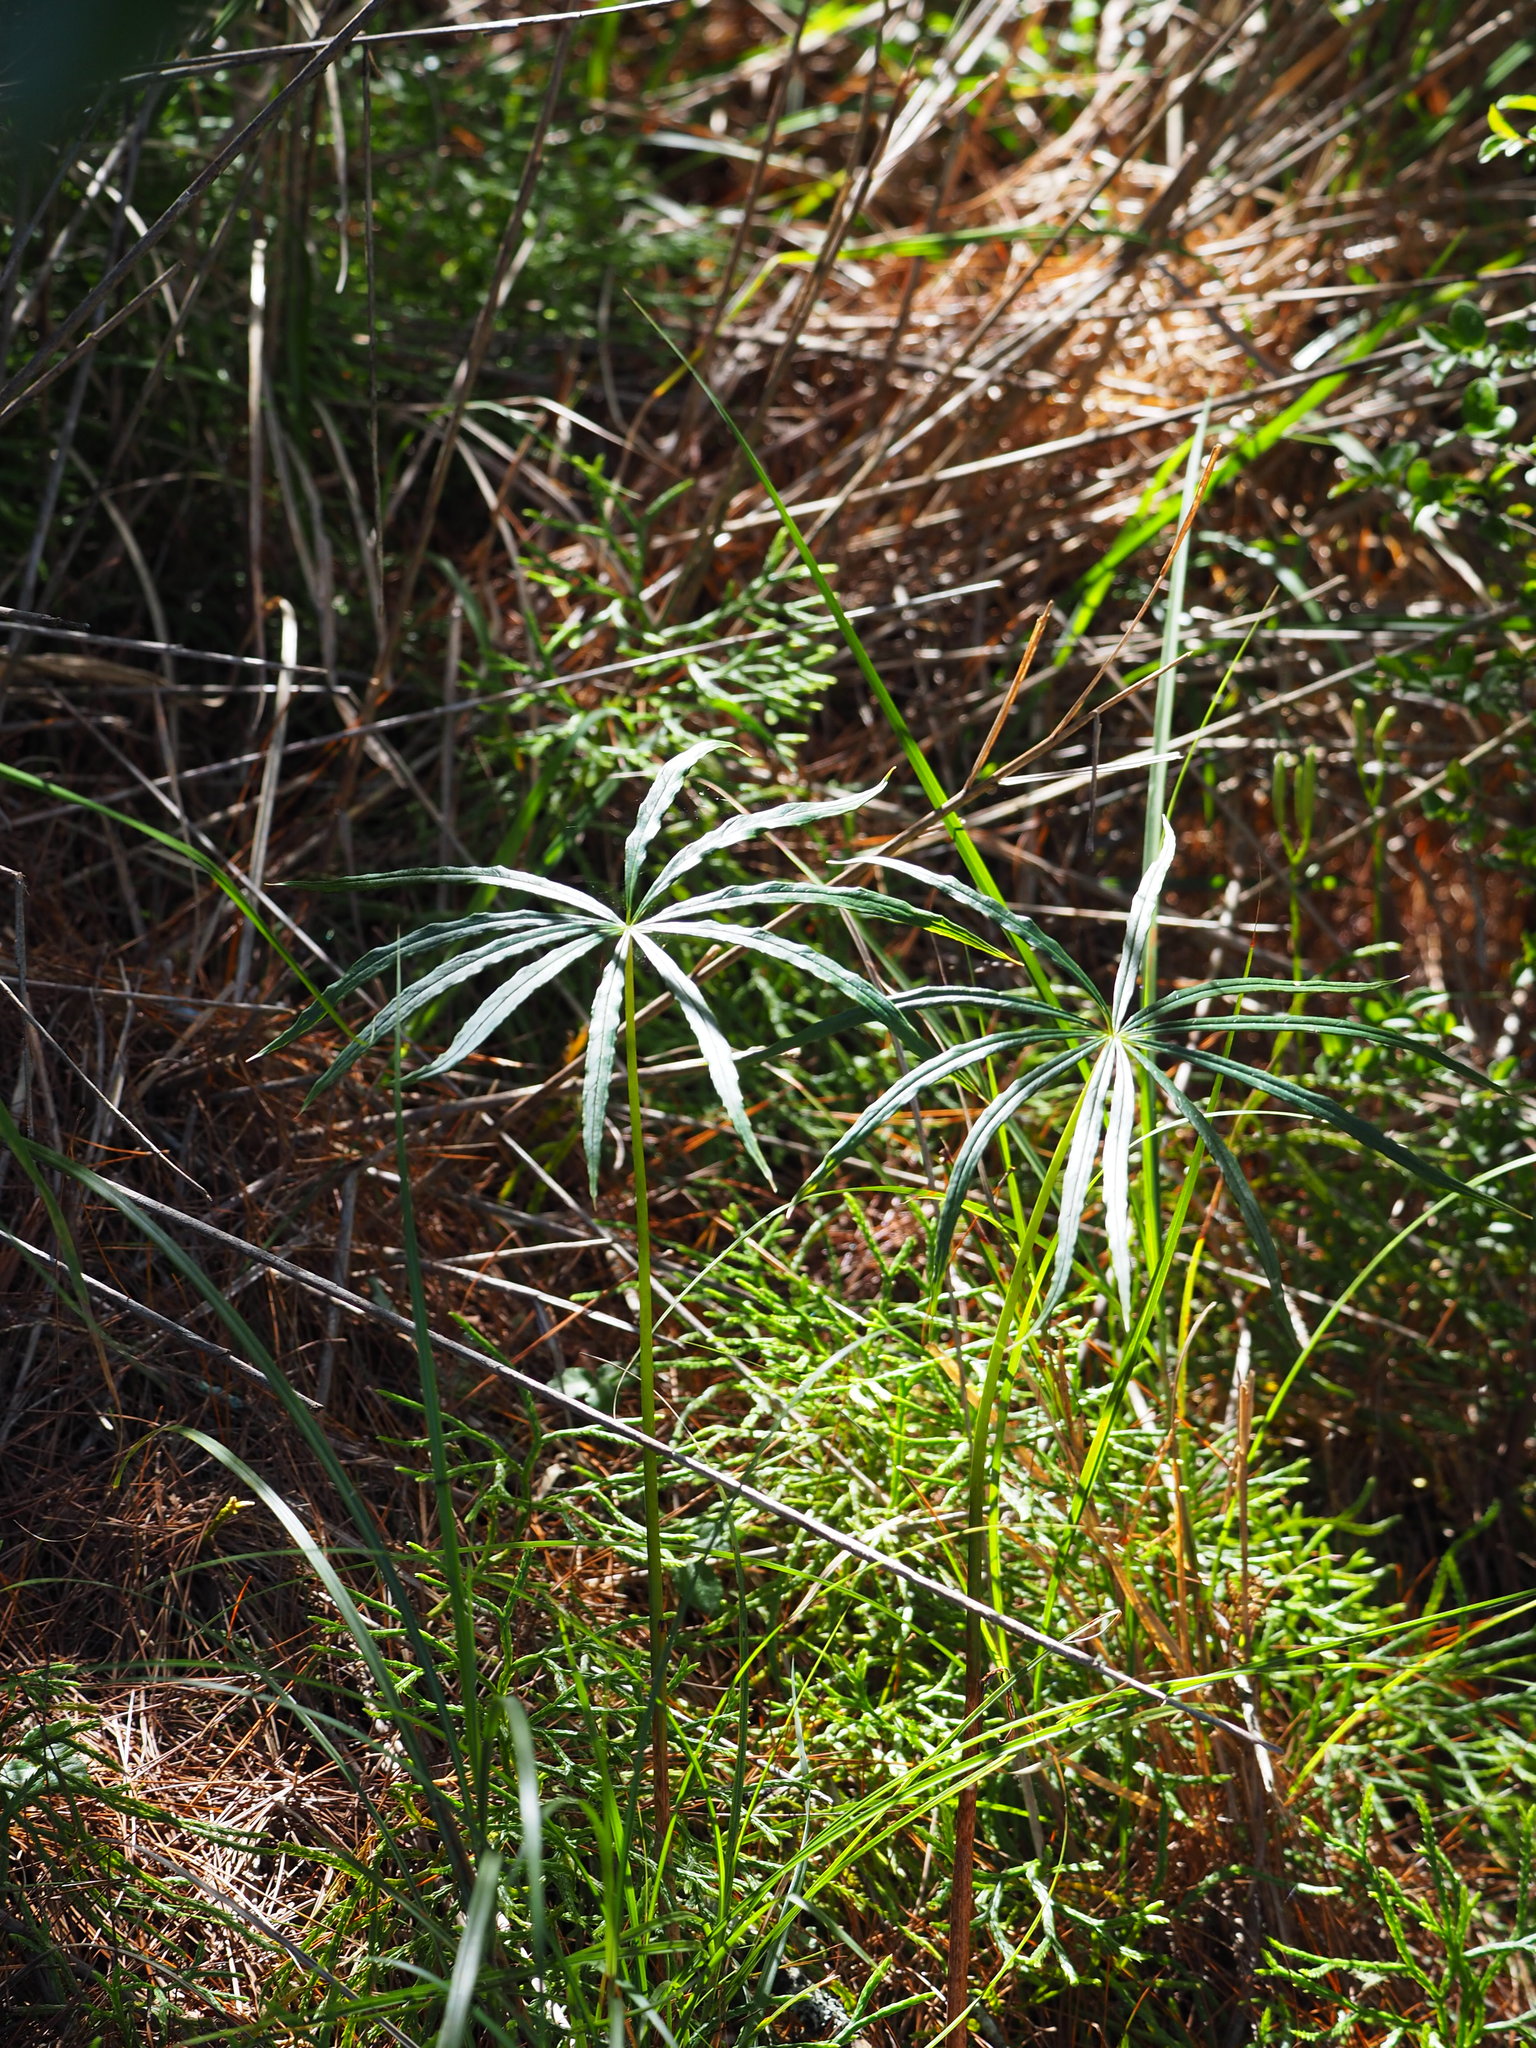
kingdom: Plantae
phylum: Tracheophyta
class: Liliopsida
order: Alismatales
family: Araceae
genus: Arisaema
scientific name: Arisaema formosanum
